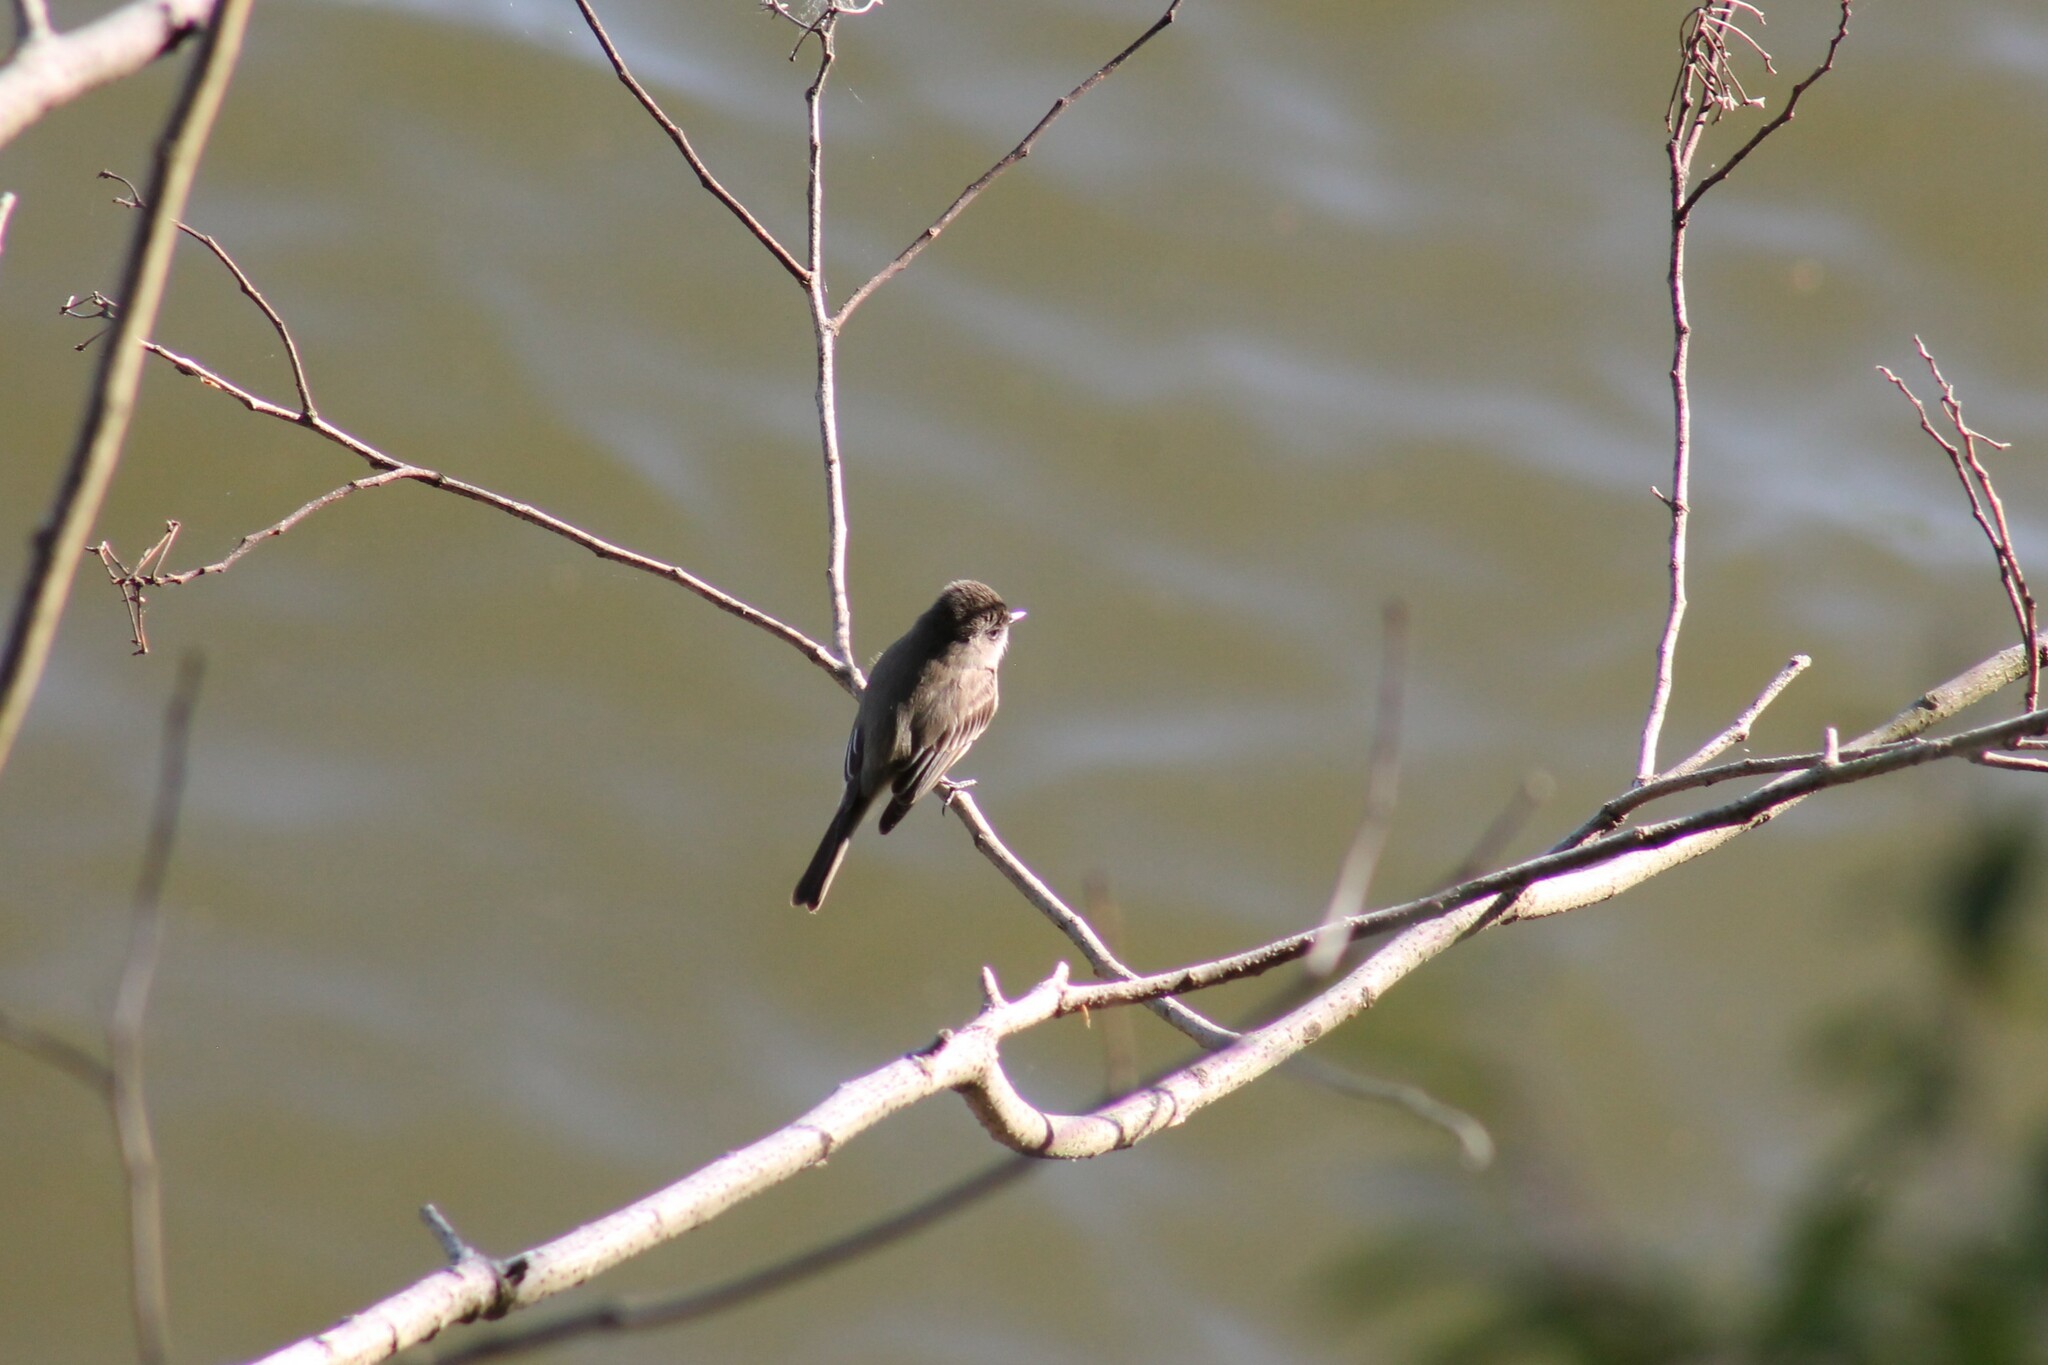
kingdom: Animalia
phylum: Chordata
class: Aves
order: Passeriformes
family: Tyrannidae
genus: Sayornis
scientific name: Sayornis phoebe
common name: Eastern phoebe
